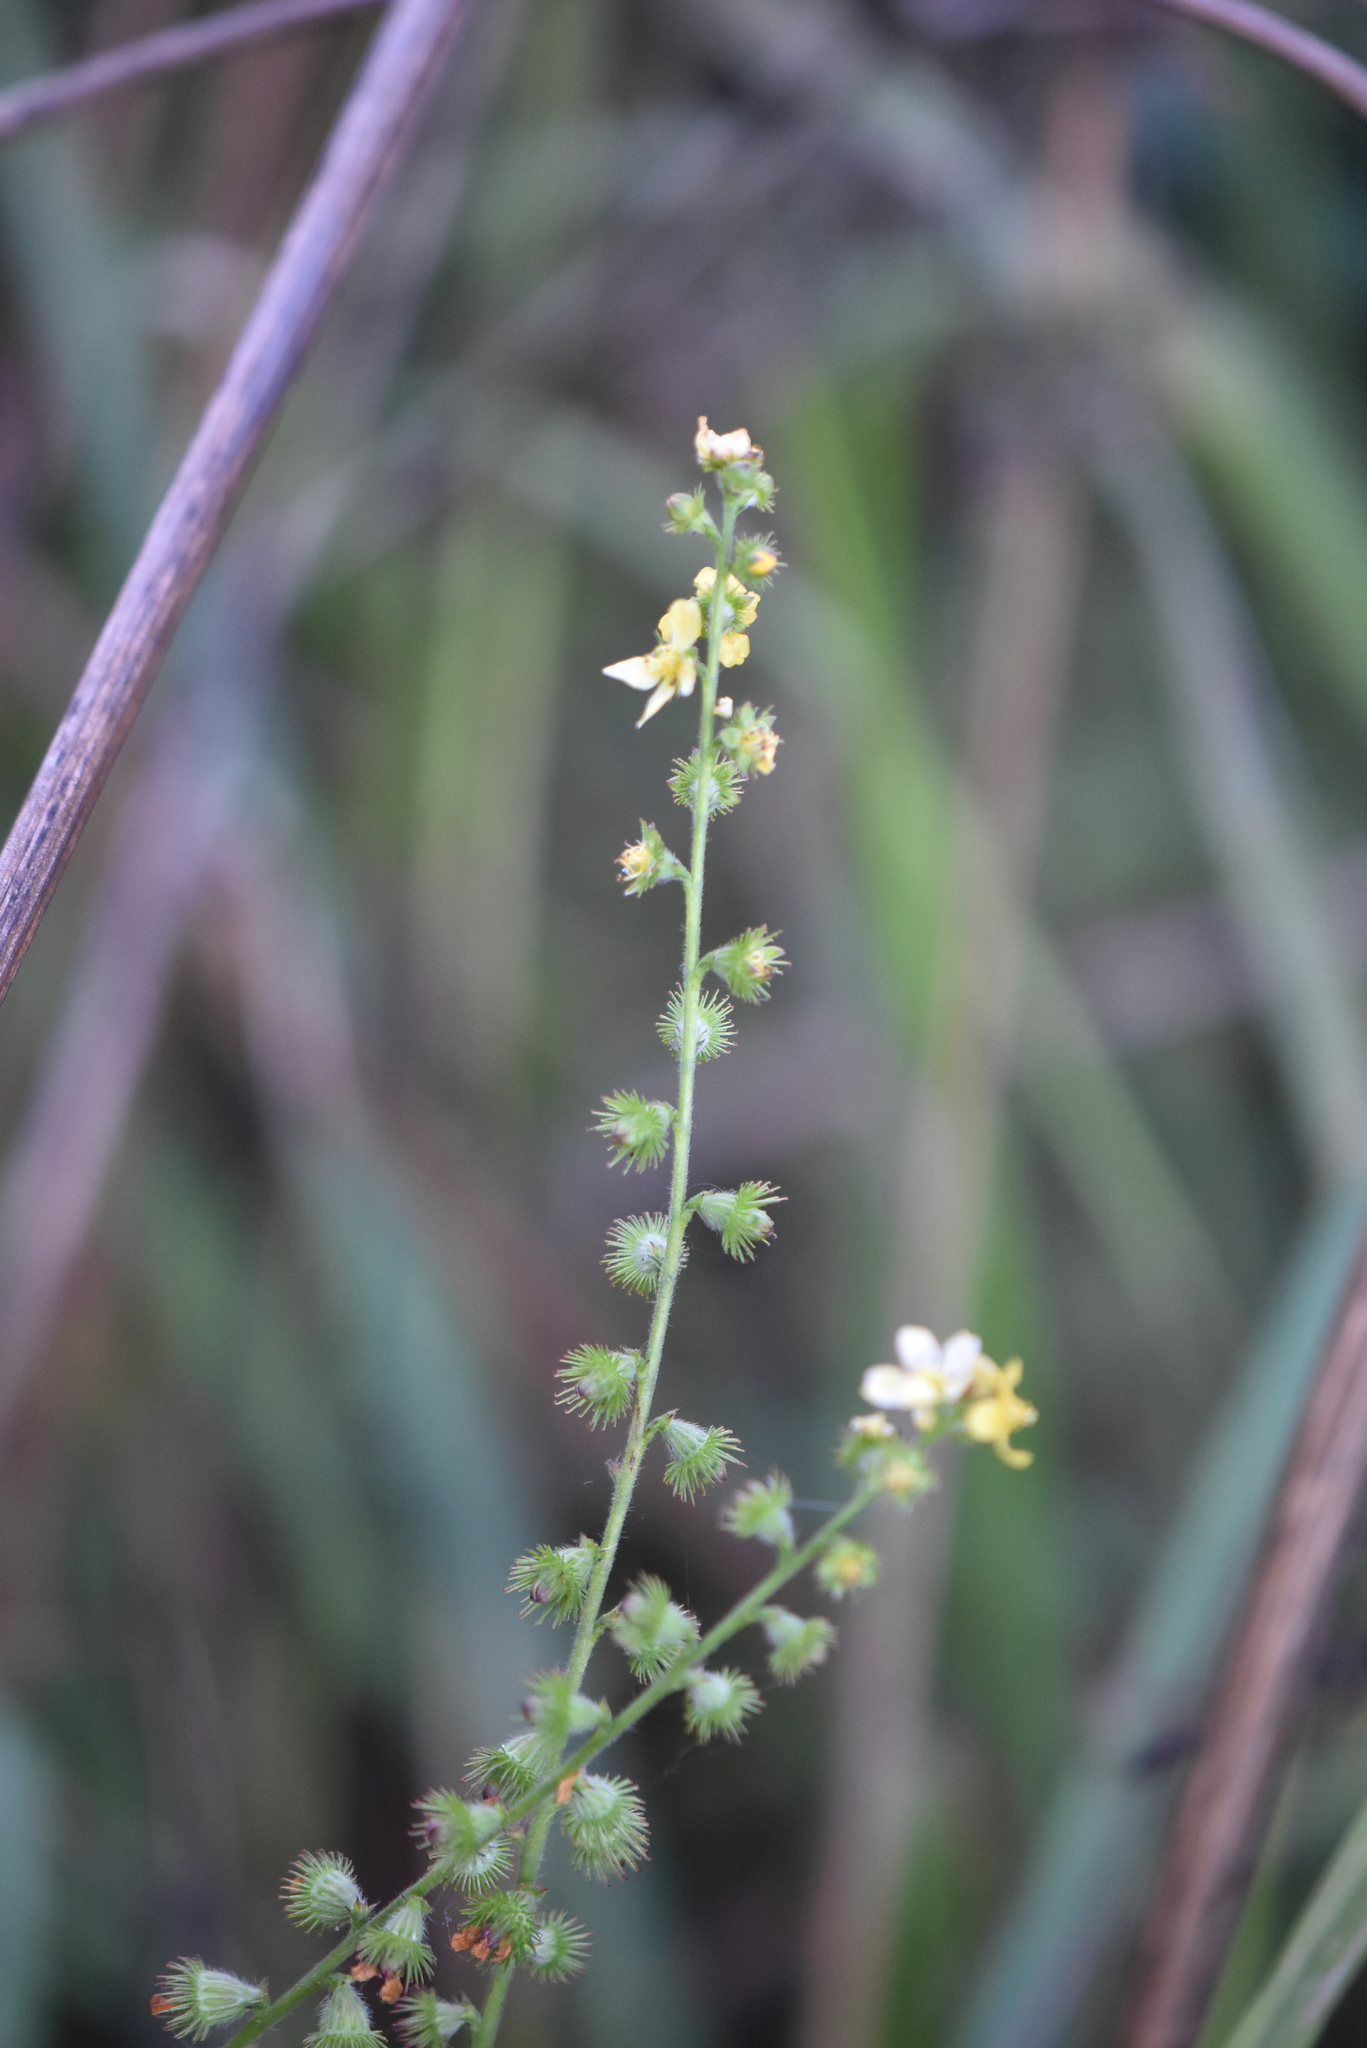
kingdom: Plantae
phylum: Tracheophyta
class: Magnoliopsida
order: Rosales
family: Rosaceae
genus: Agrimonia
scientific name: Agrimonia eupatoria
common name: Agrimony
